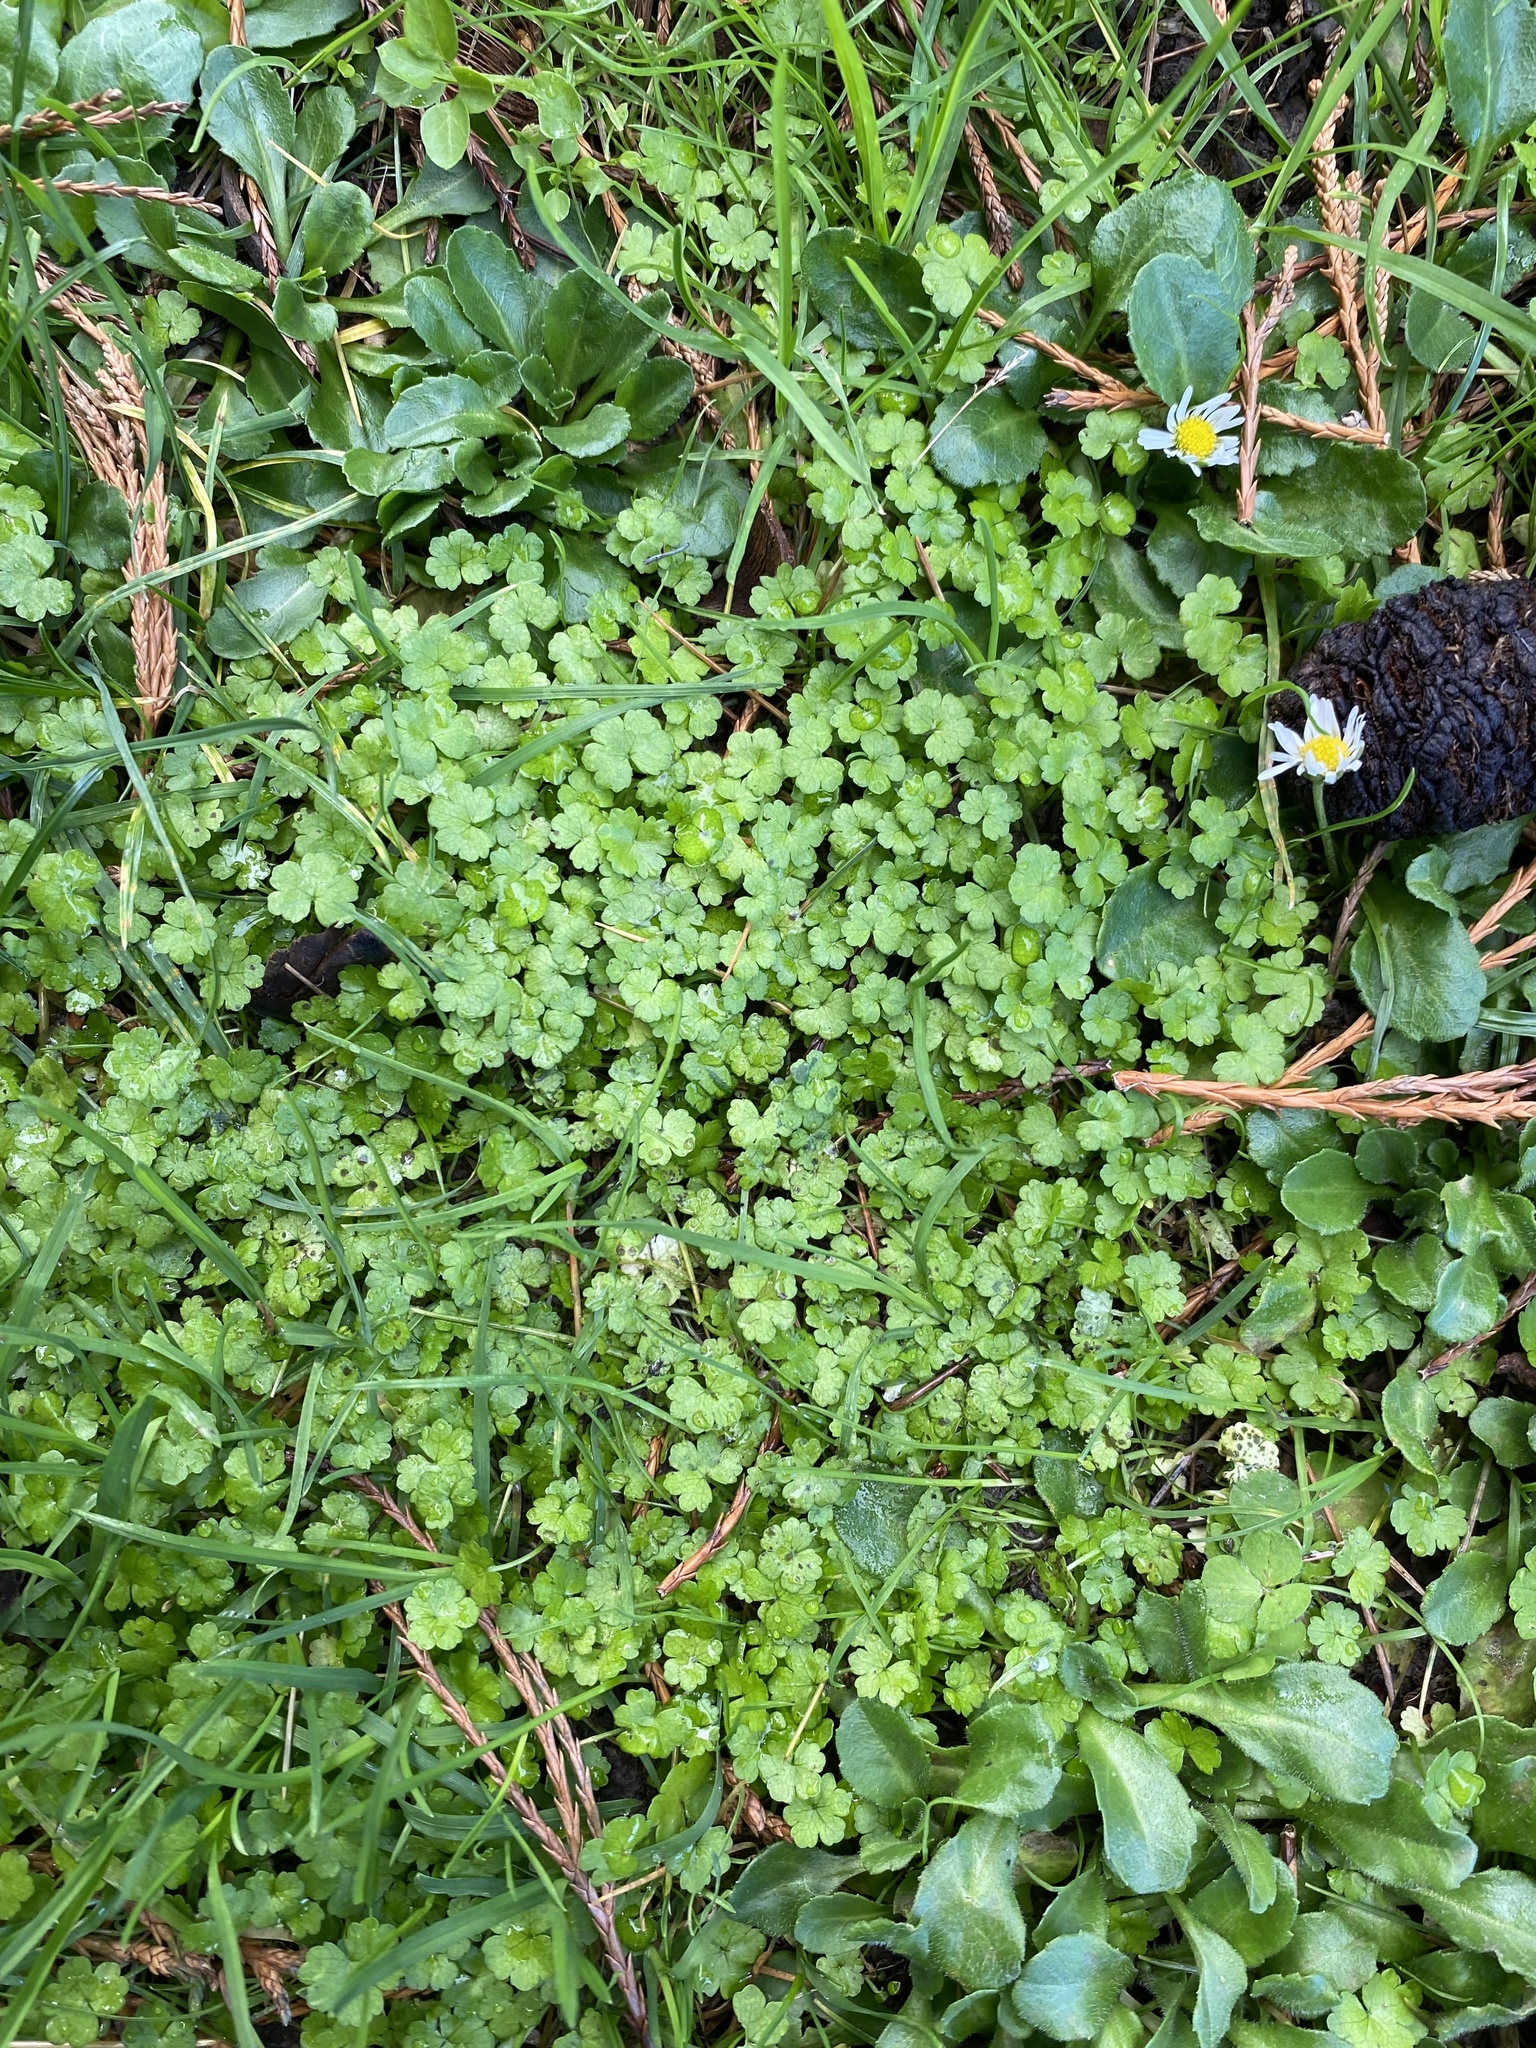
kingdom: Plantae
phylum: Tracheophyta
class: Magnoliopsida
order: Apiales
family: Araliaceae
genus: Hydrocotyle
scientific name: Hydrocotyle heteromeria
